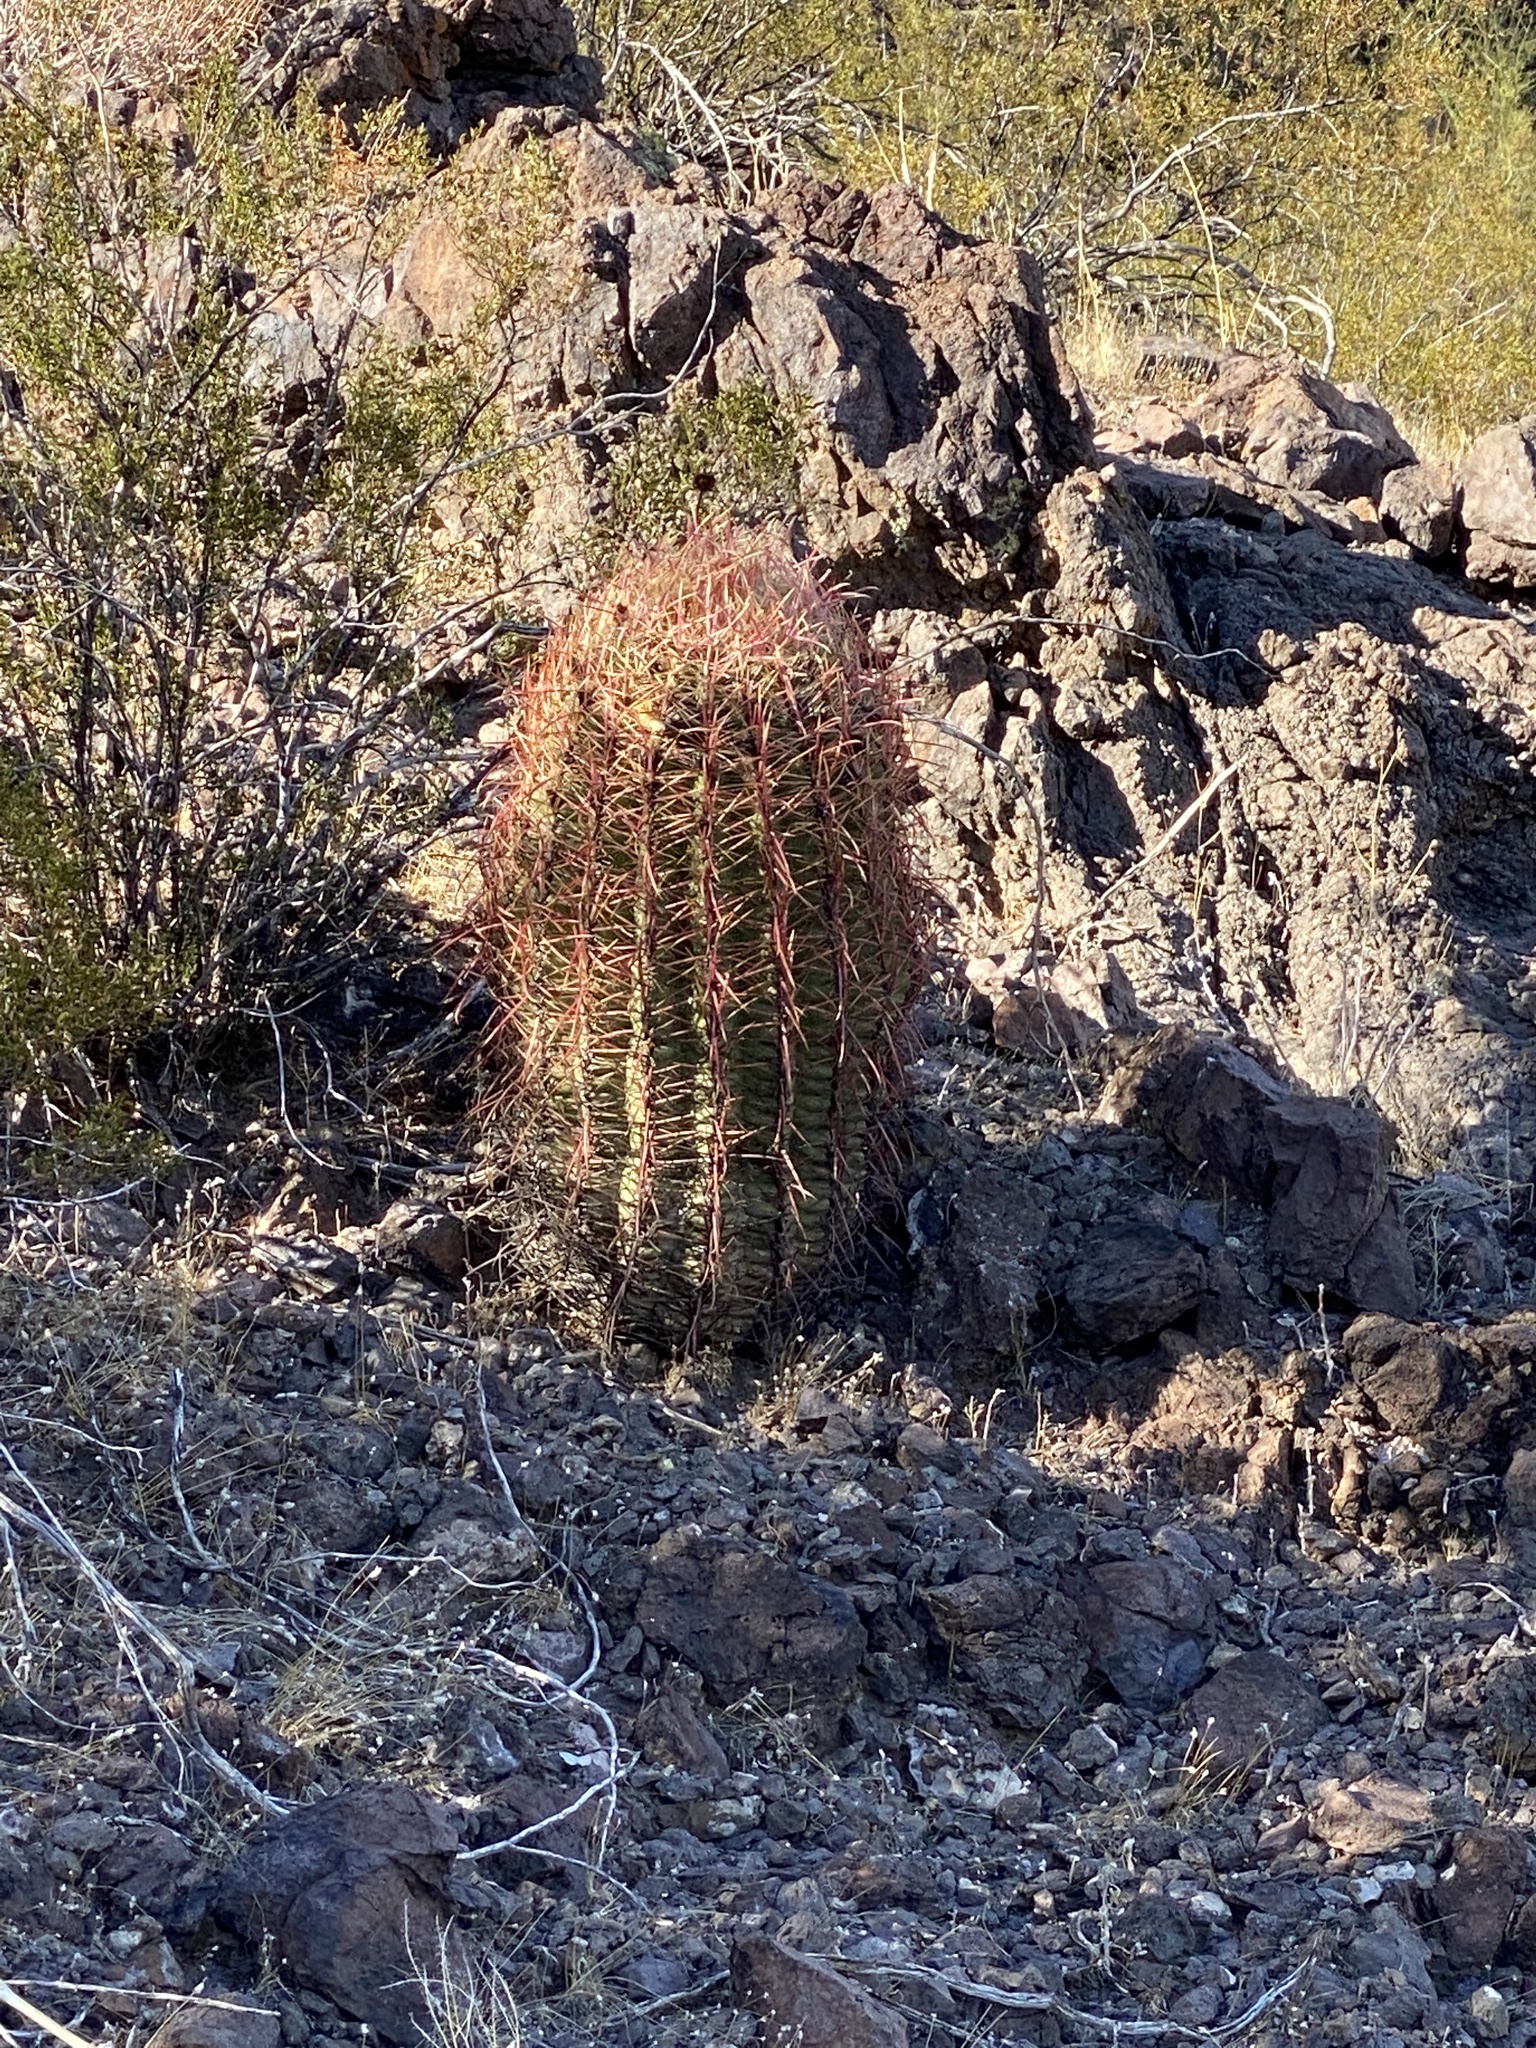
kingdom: Plantae
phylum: Tracheophyta
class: Magnoliopsida
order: Caryophyllales
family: Cactaceae
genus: Ferocactus
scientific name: Ferocactus cylindraceus
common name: California barrel cactus
